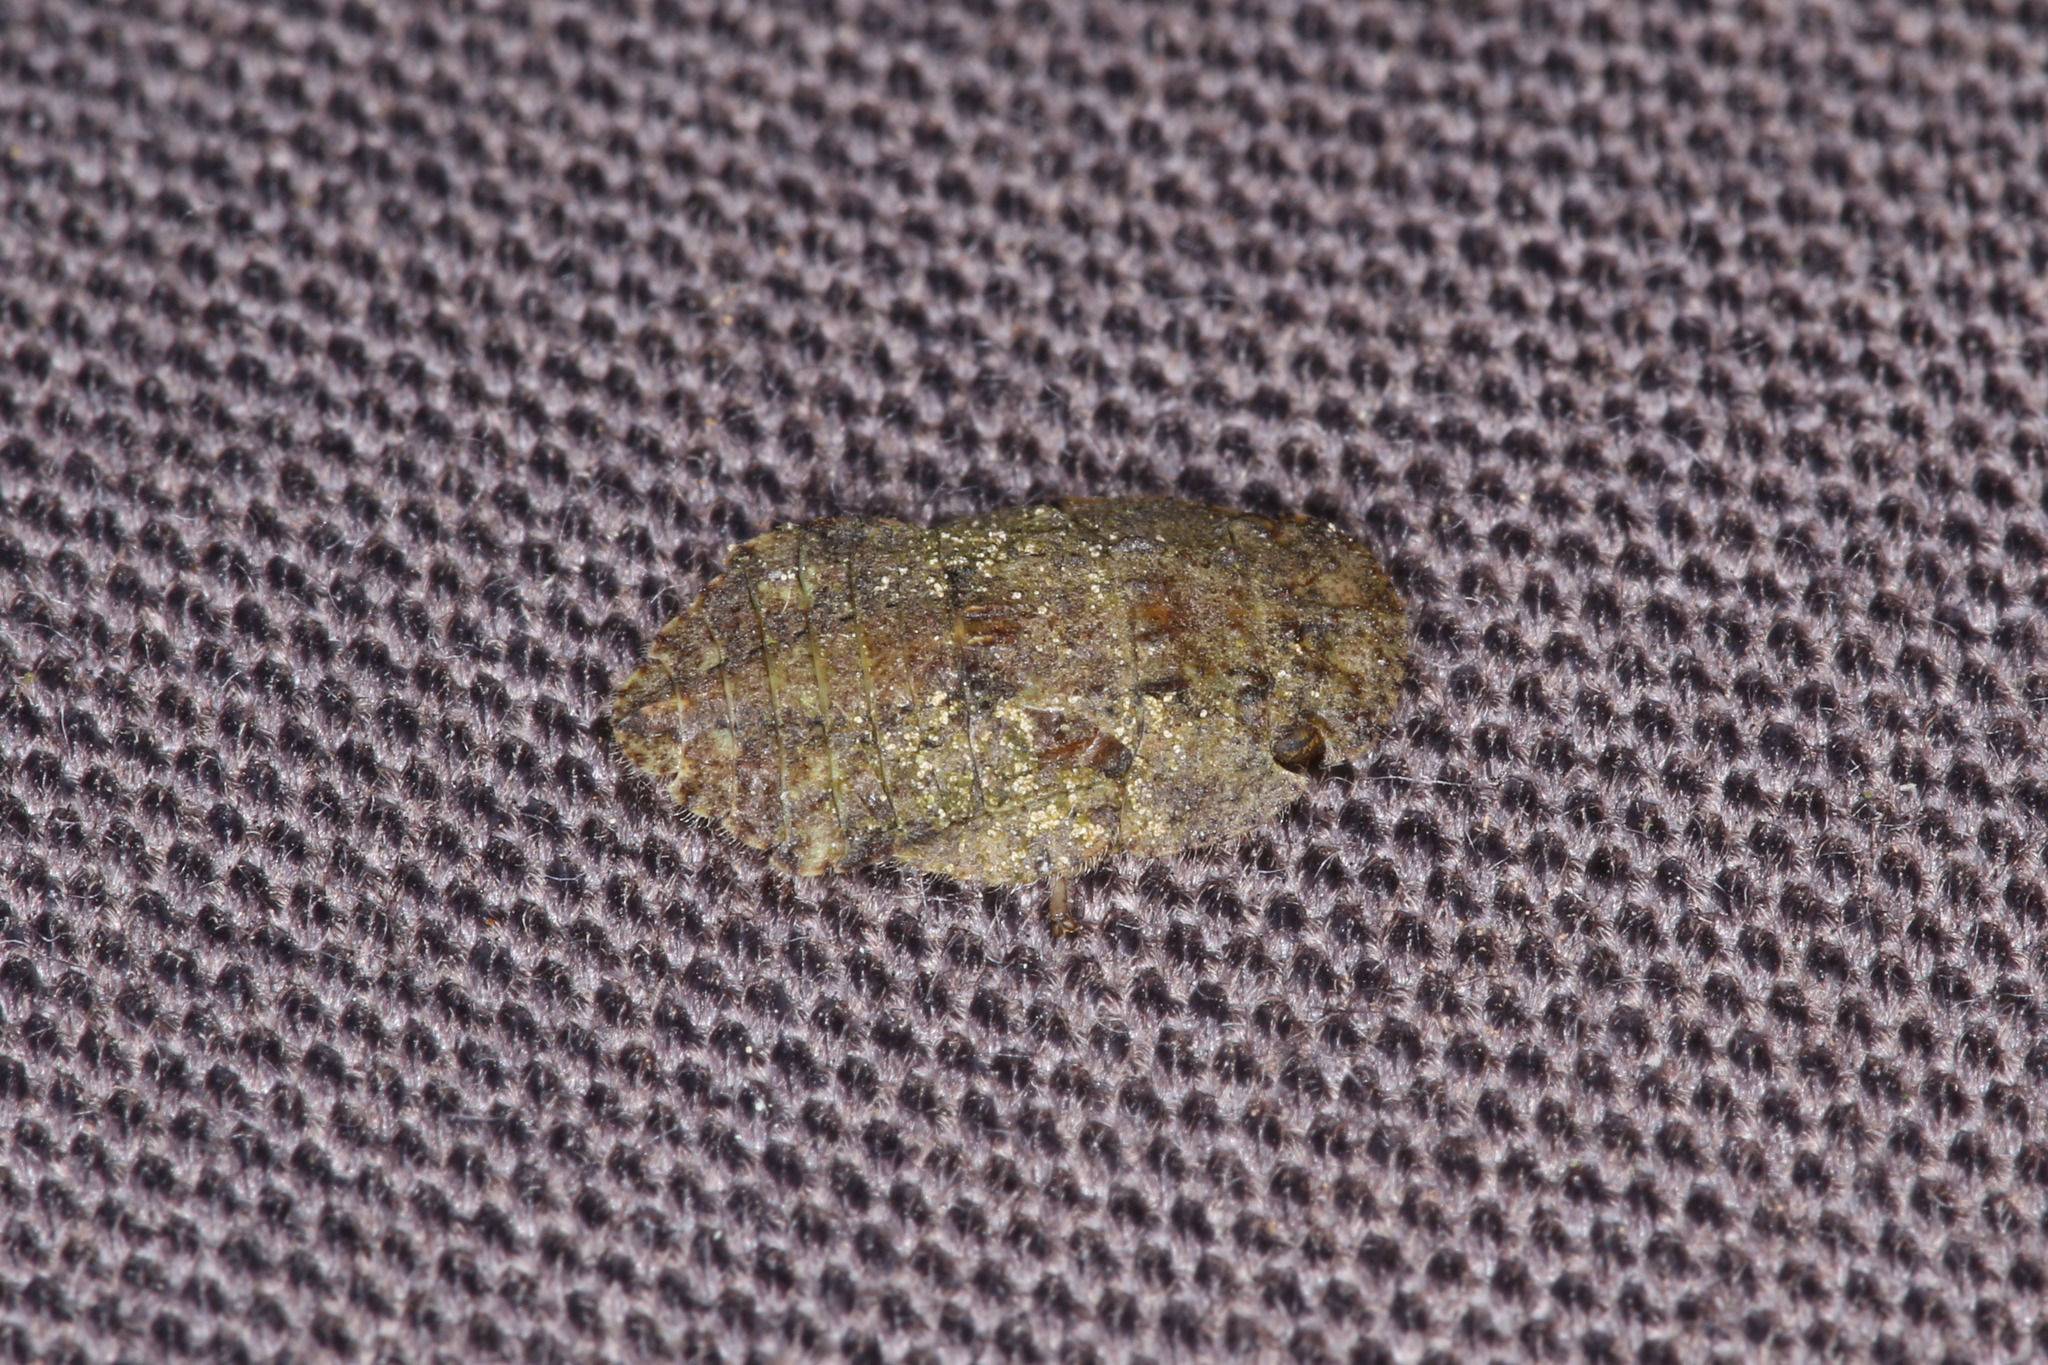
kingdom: Animalia
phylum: Arthropoda
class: Insecta
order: Hemiptera
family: Cicadellidae
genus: Ledra
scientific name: Ledra aurita
